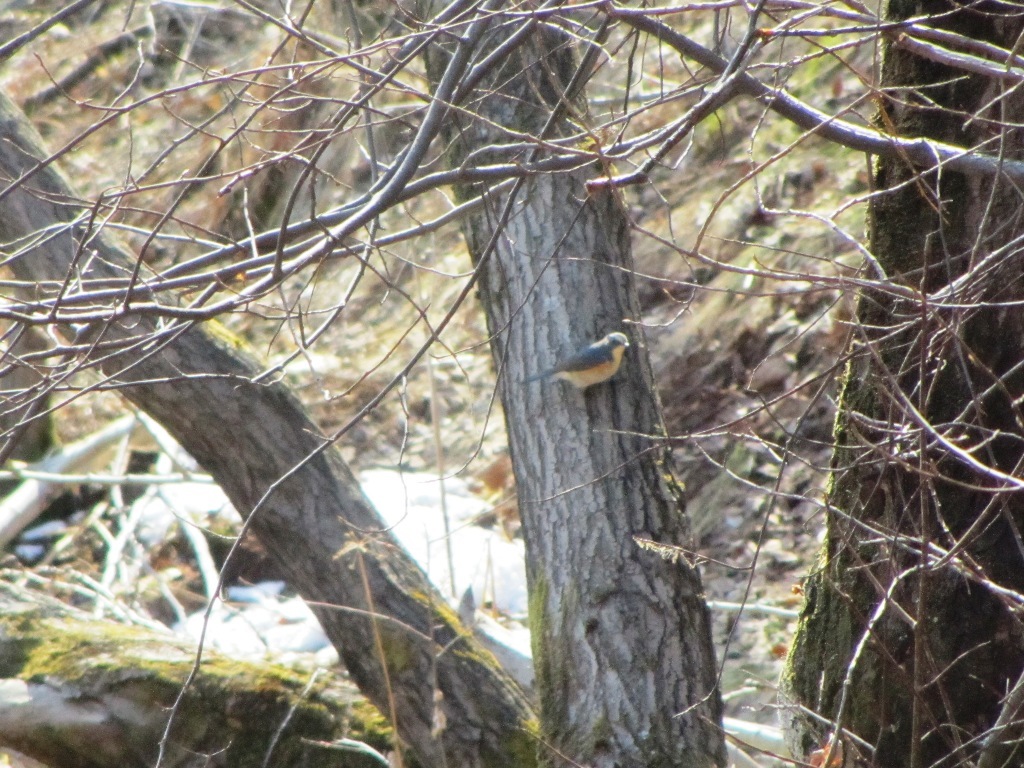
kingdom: Animalia
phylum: Chordata
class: Aves
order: Passeriformes
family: Muscicapidae
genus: Tarsiger
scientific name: Tarsiger cyanurus
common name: Red-flanked bluetail
